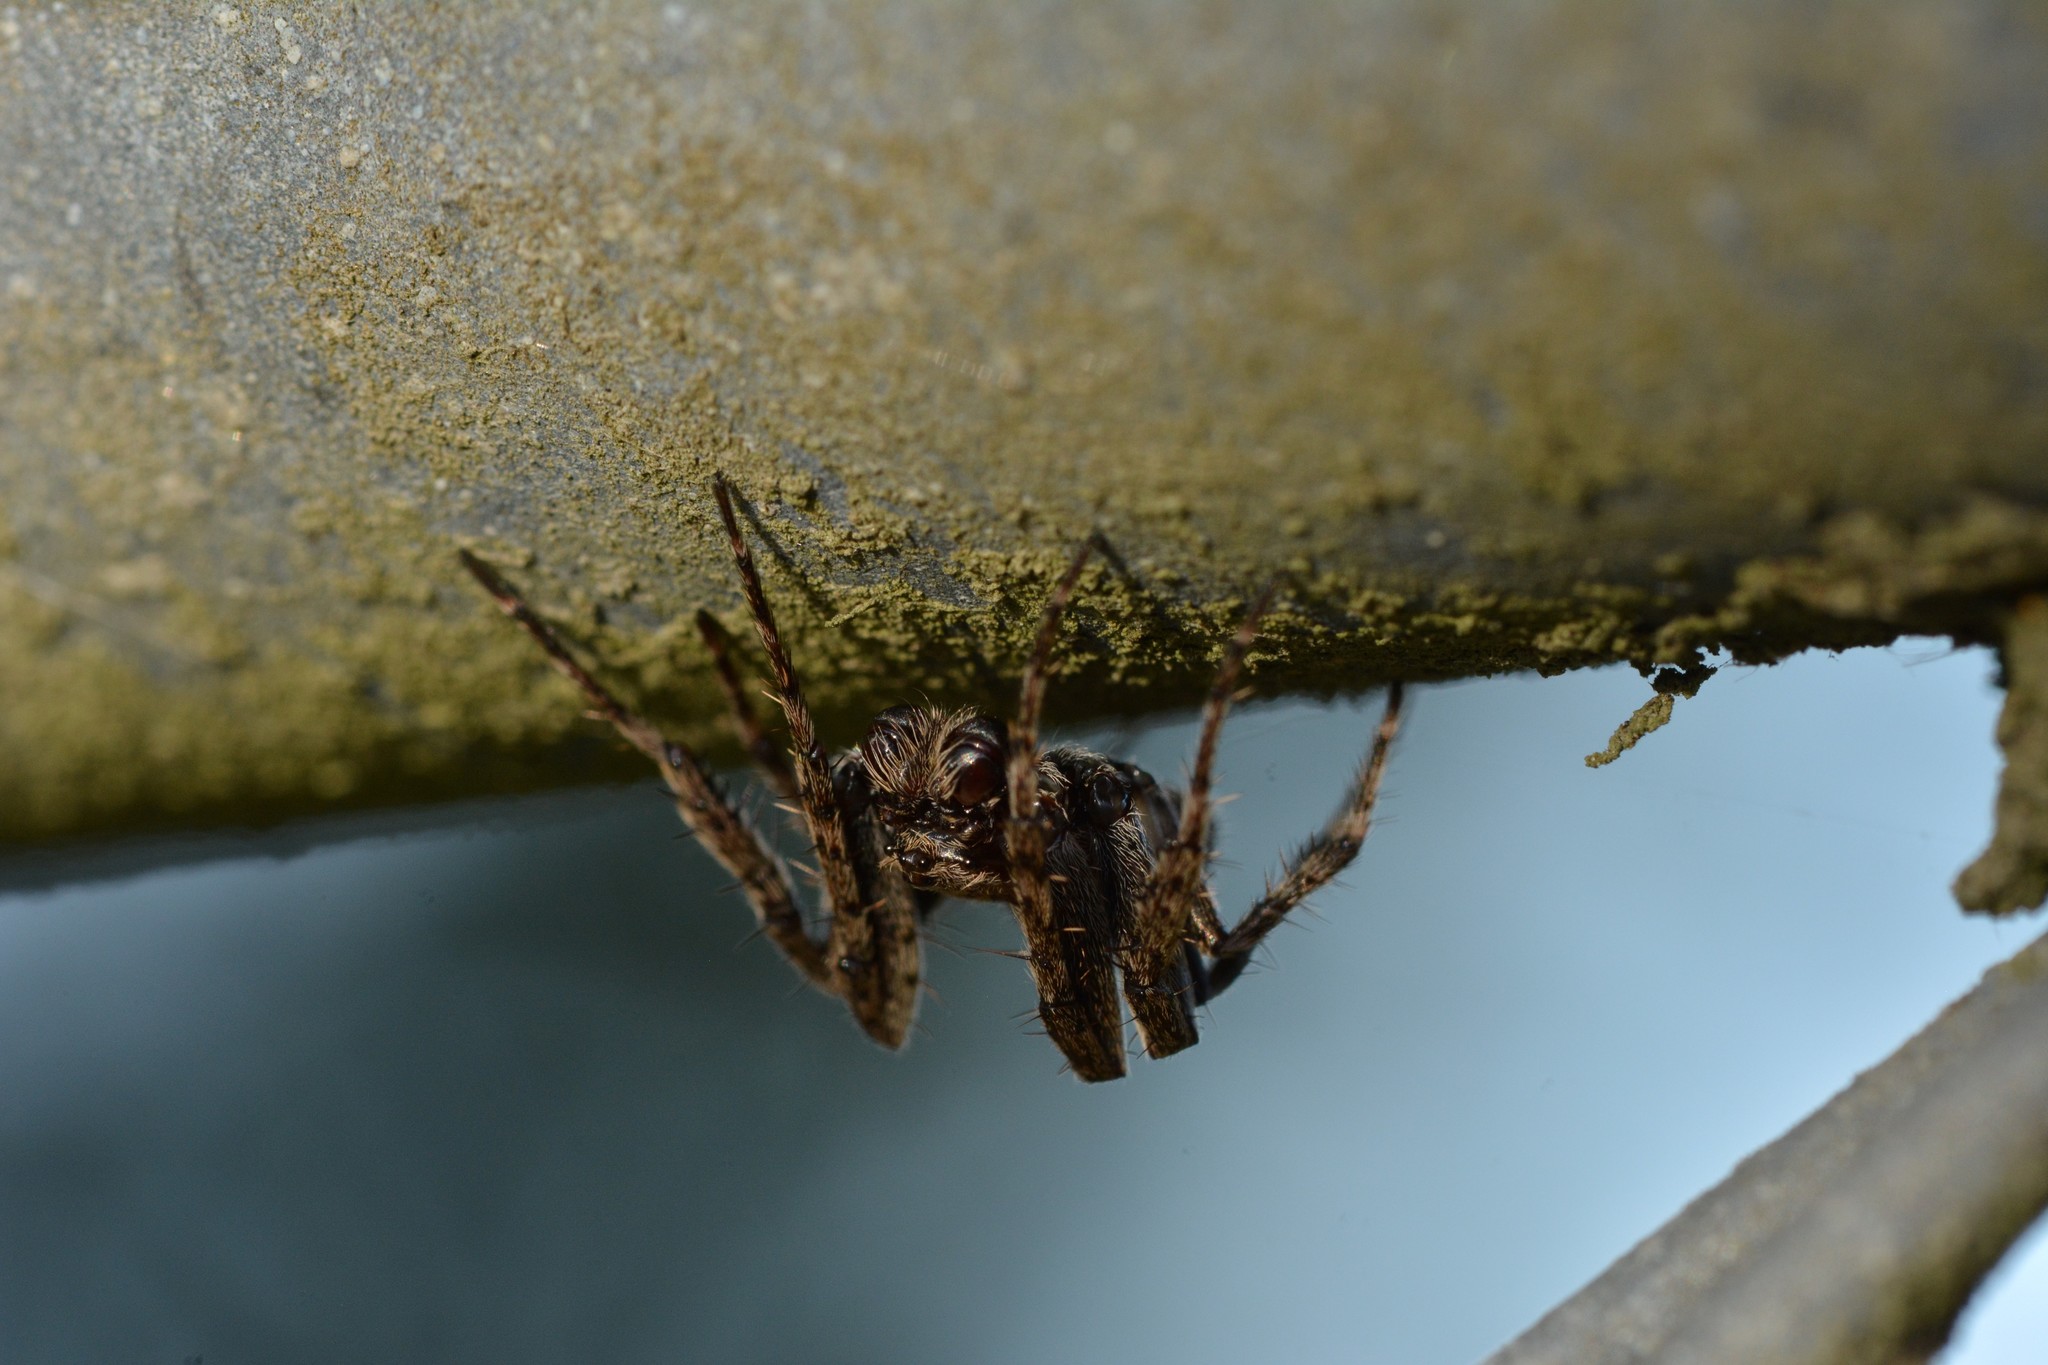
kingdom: Animalia
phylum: Arthropoda
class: Arachnida
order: Araneae
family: Araneidae
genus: Eriophora
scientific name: Eriophora pustulosa
